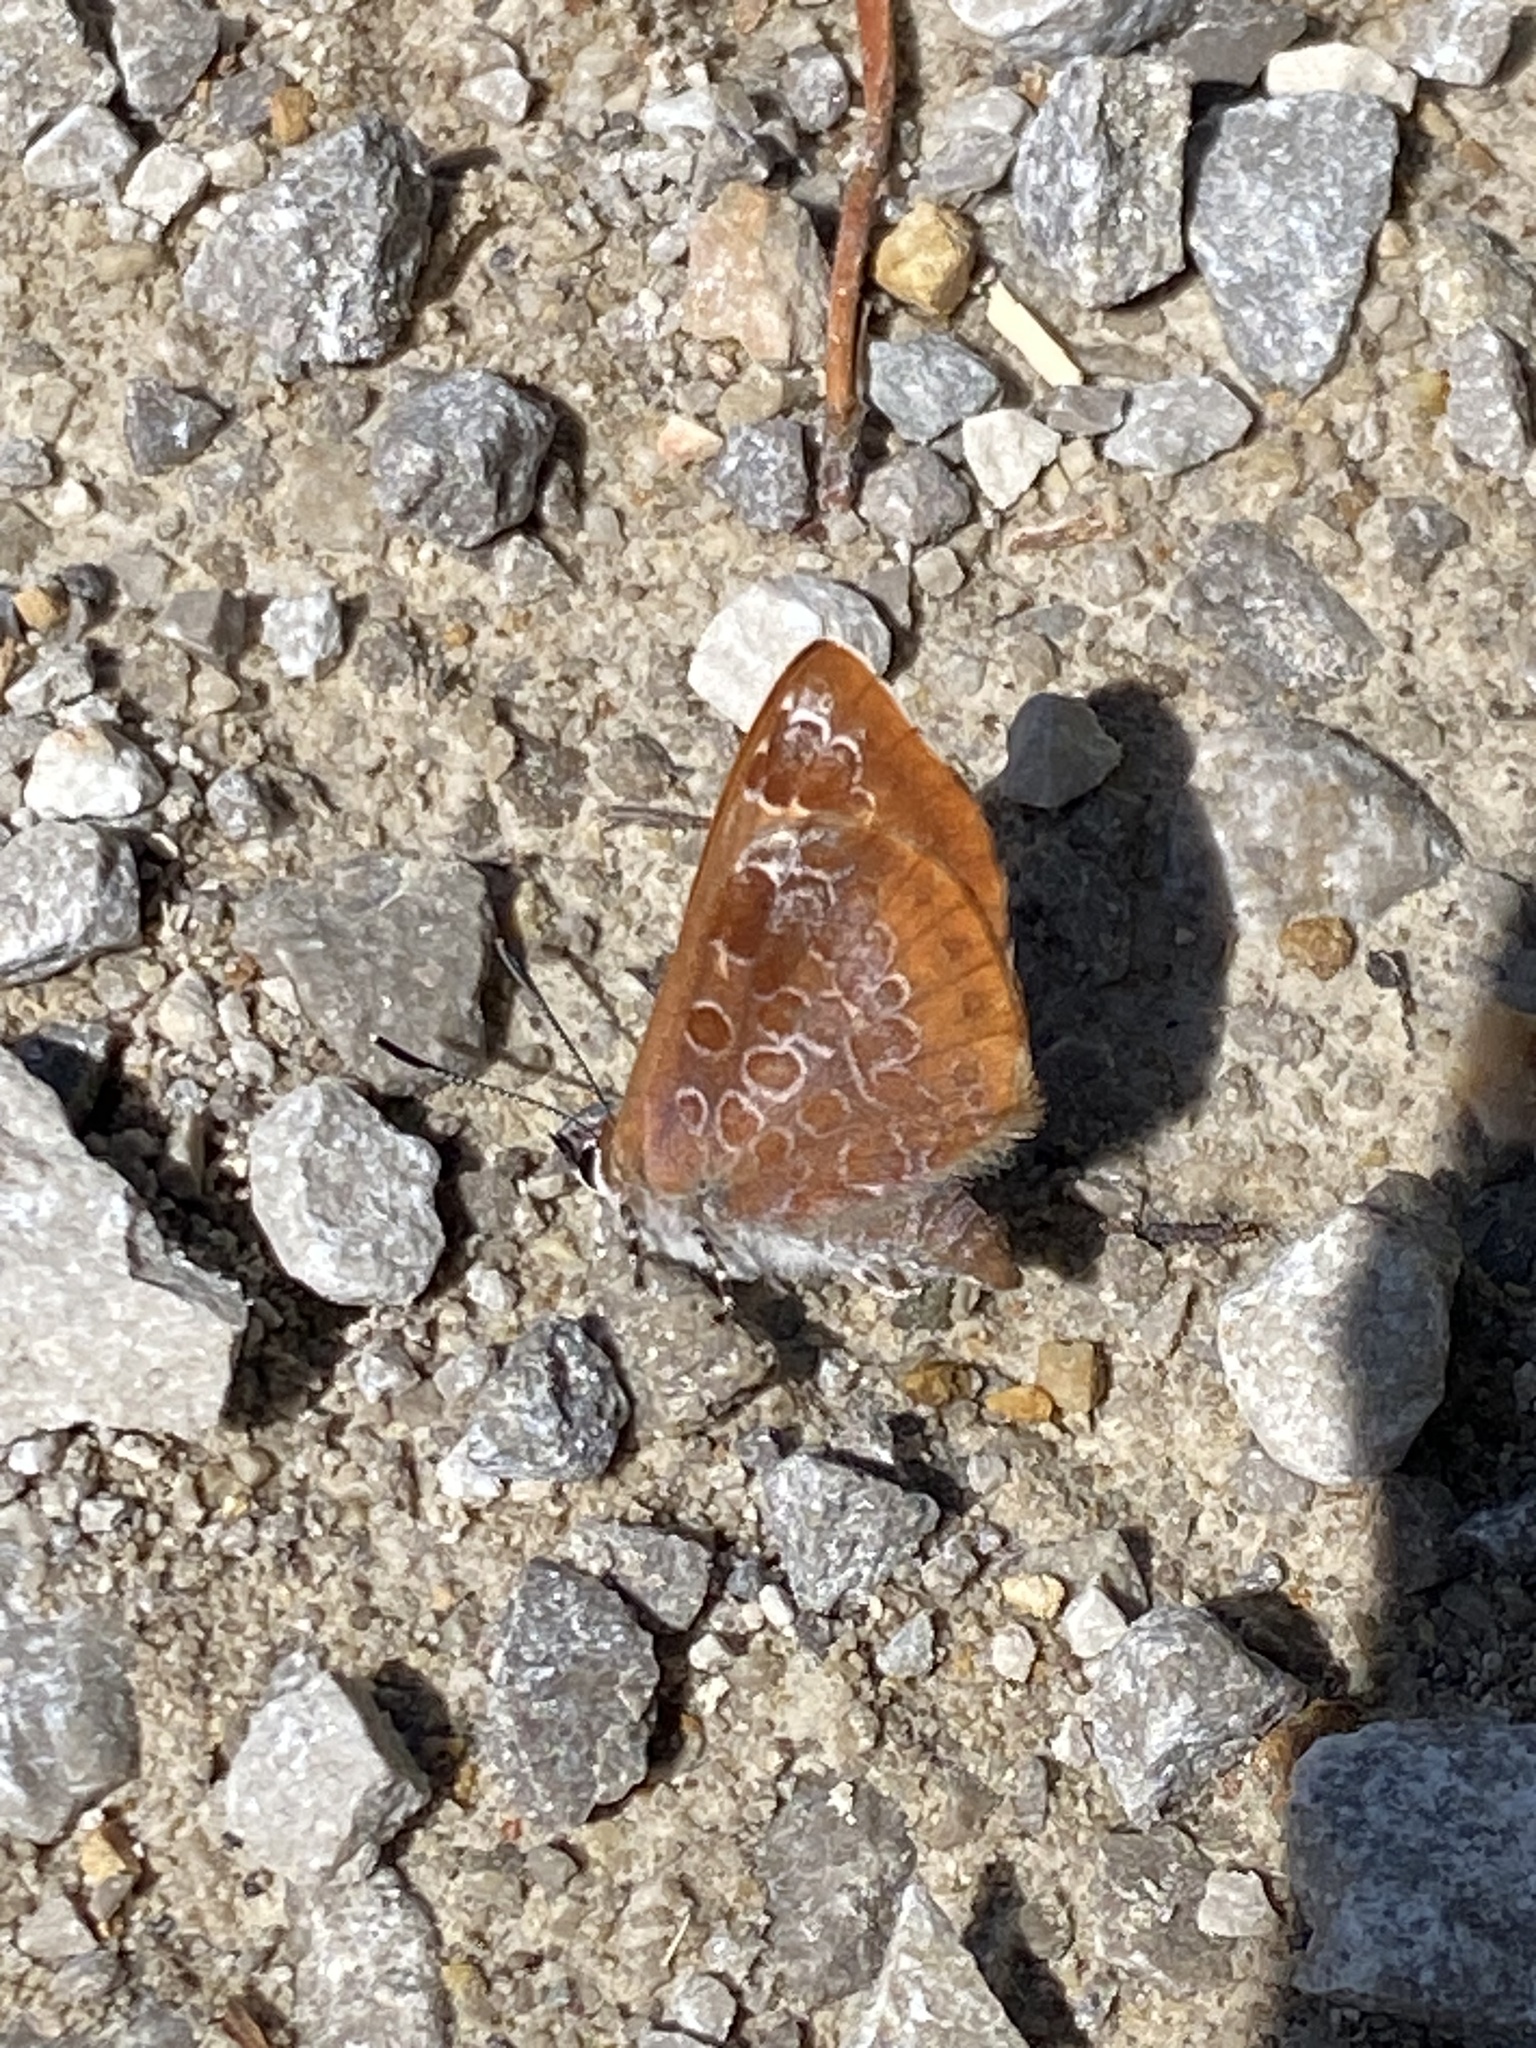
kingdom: Animalia
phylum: Arthropoda
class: Insecta
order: Lepidoptera
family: Lycaenidae
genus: Feniseca
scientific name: Feniseca tarquinius
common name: Harvester
